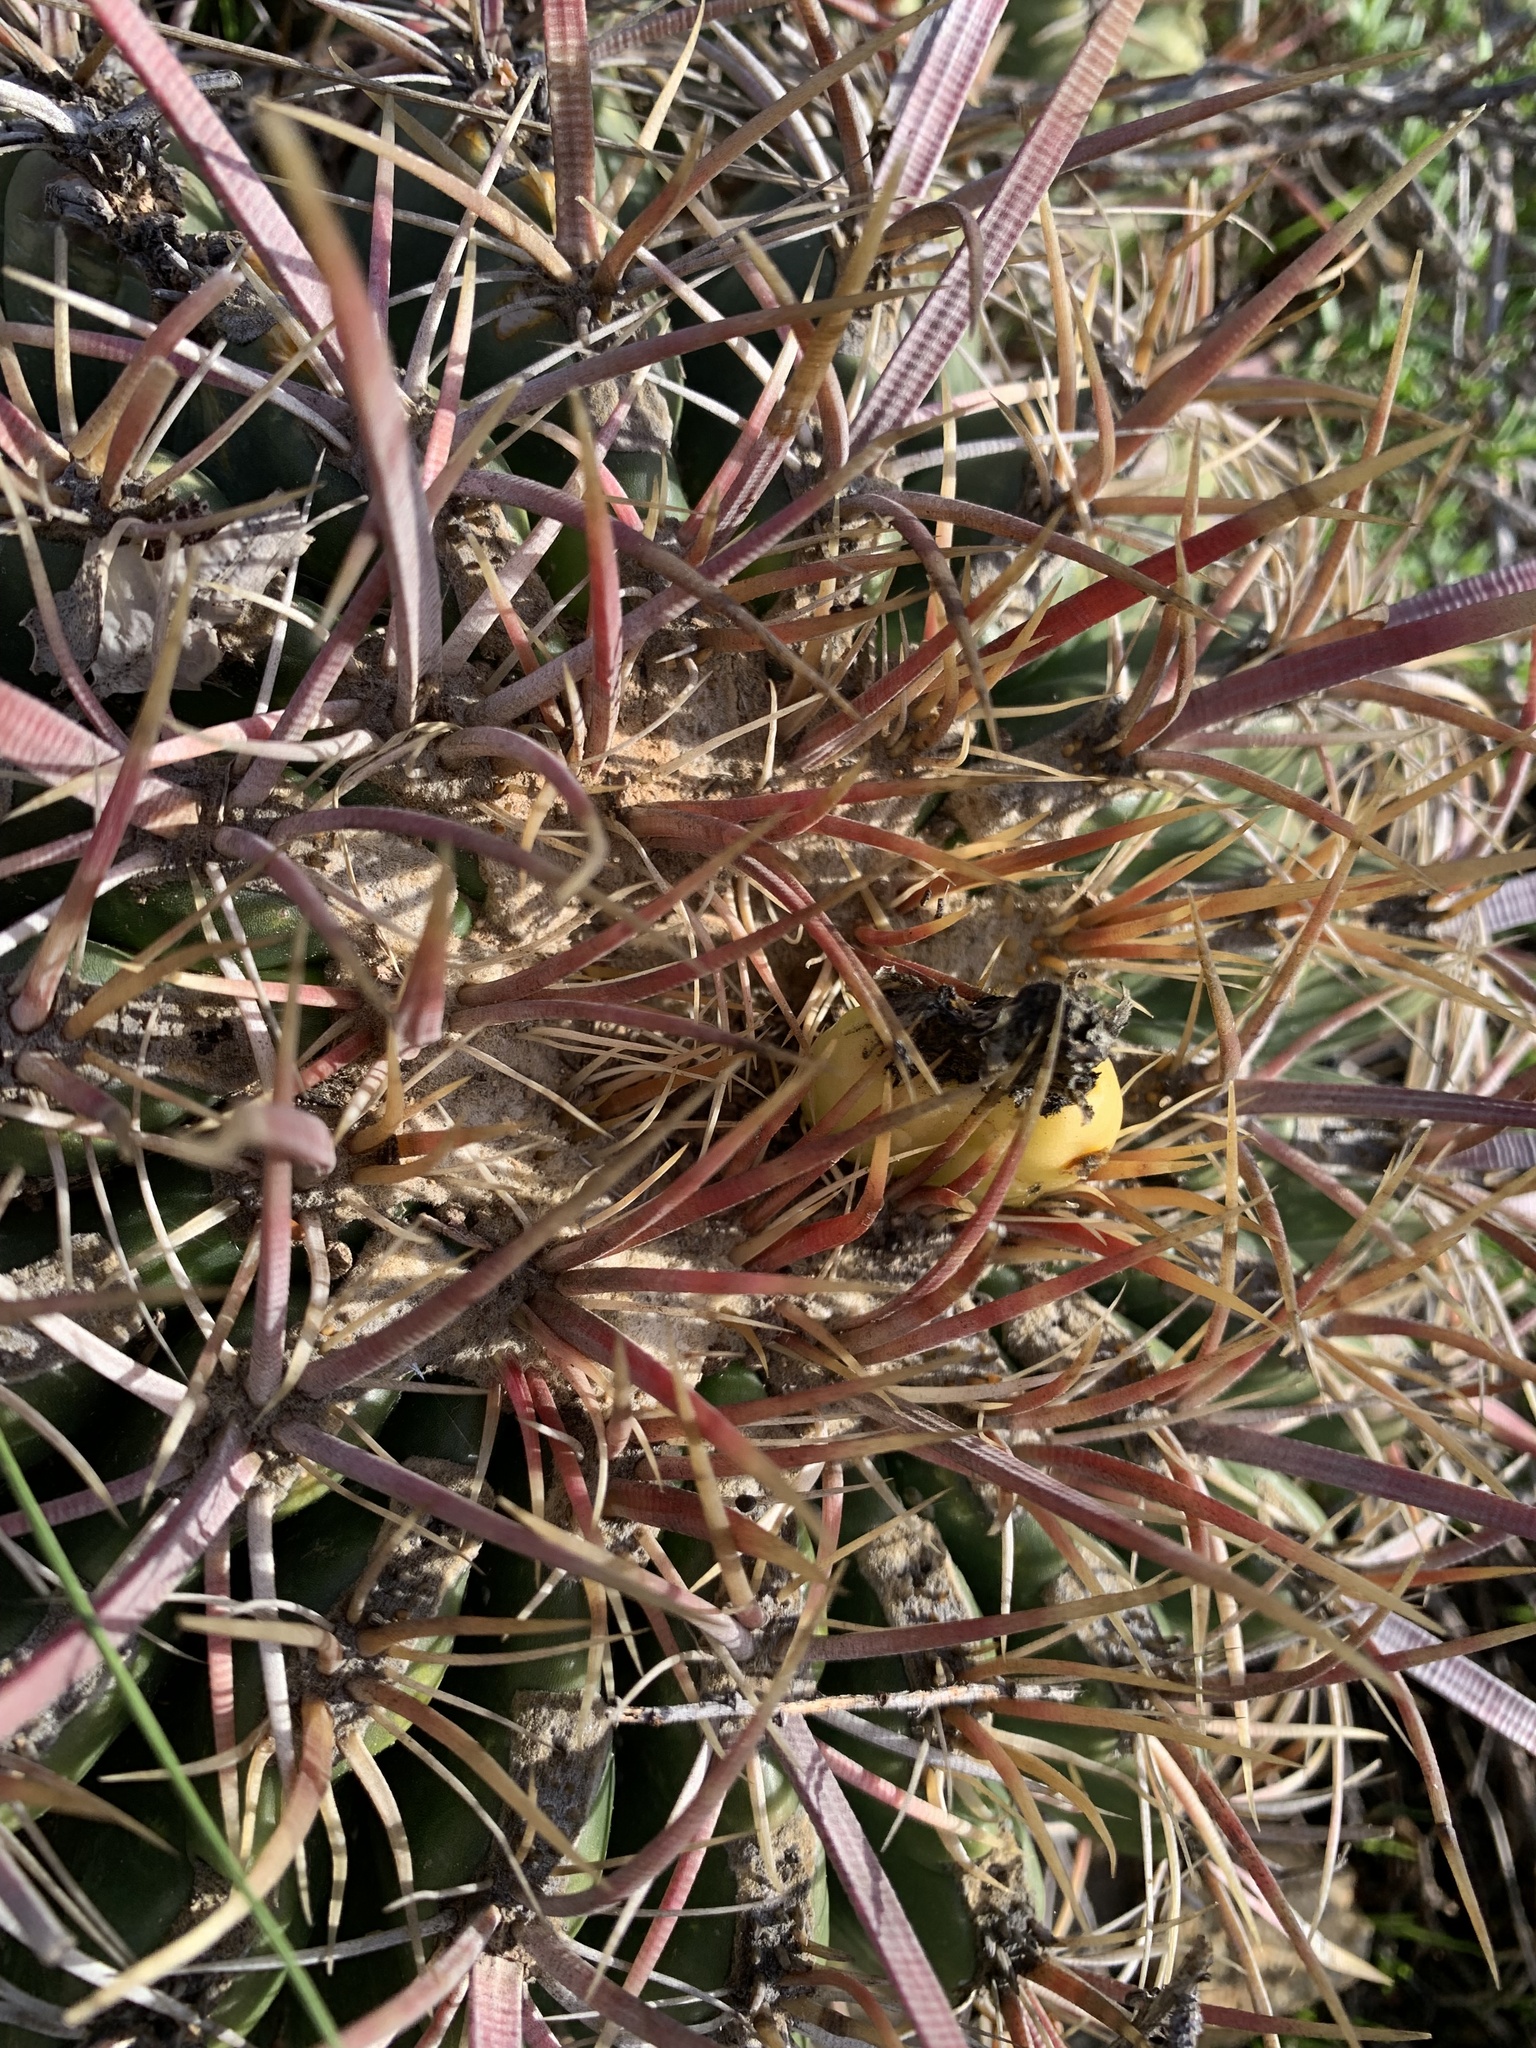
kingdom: Plantae
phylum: Tracheophyta
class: Magnoliopsida
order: Caryophyllales
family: Cactaceae
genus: Ferocactus
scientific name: Ferocactus viridescens
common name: San diego barrel cactus
